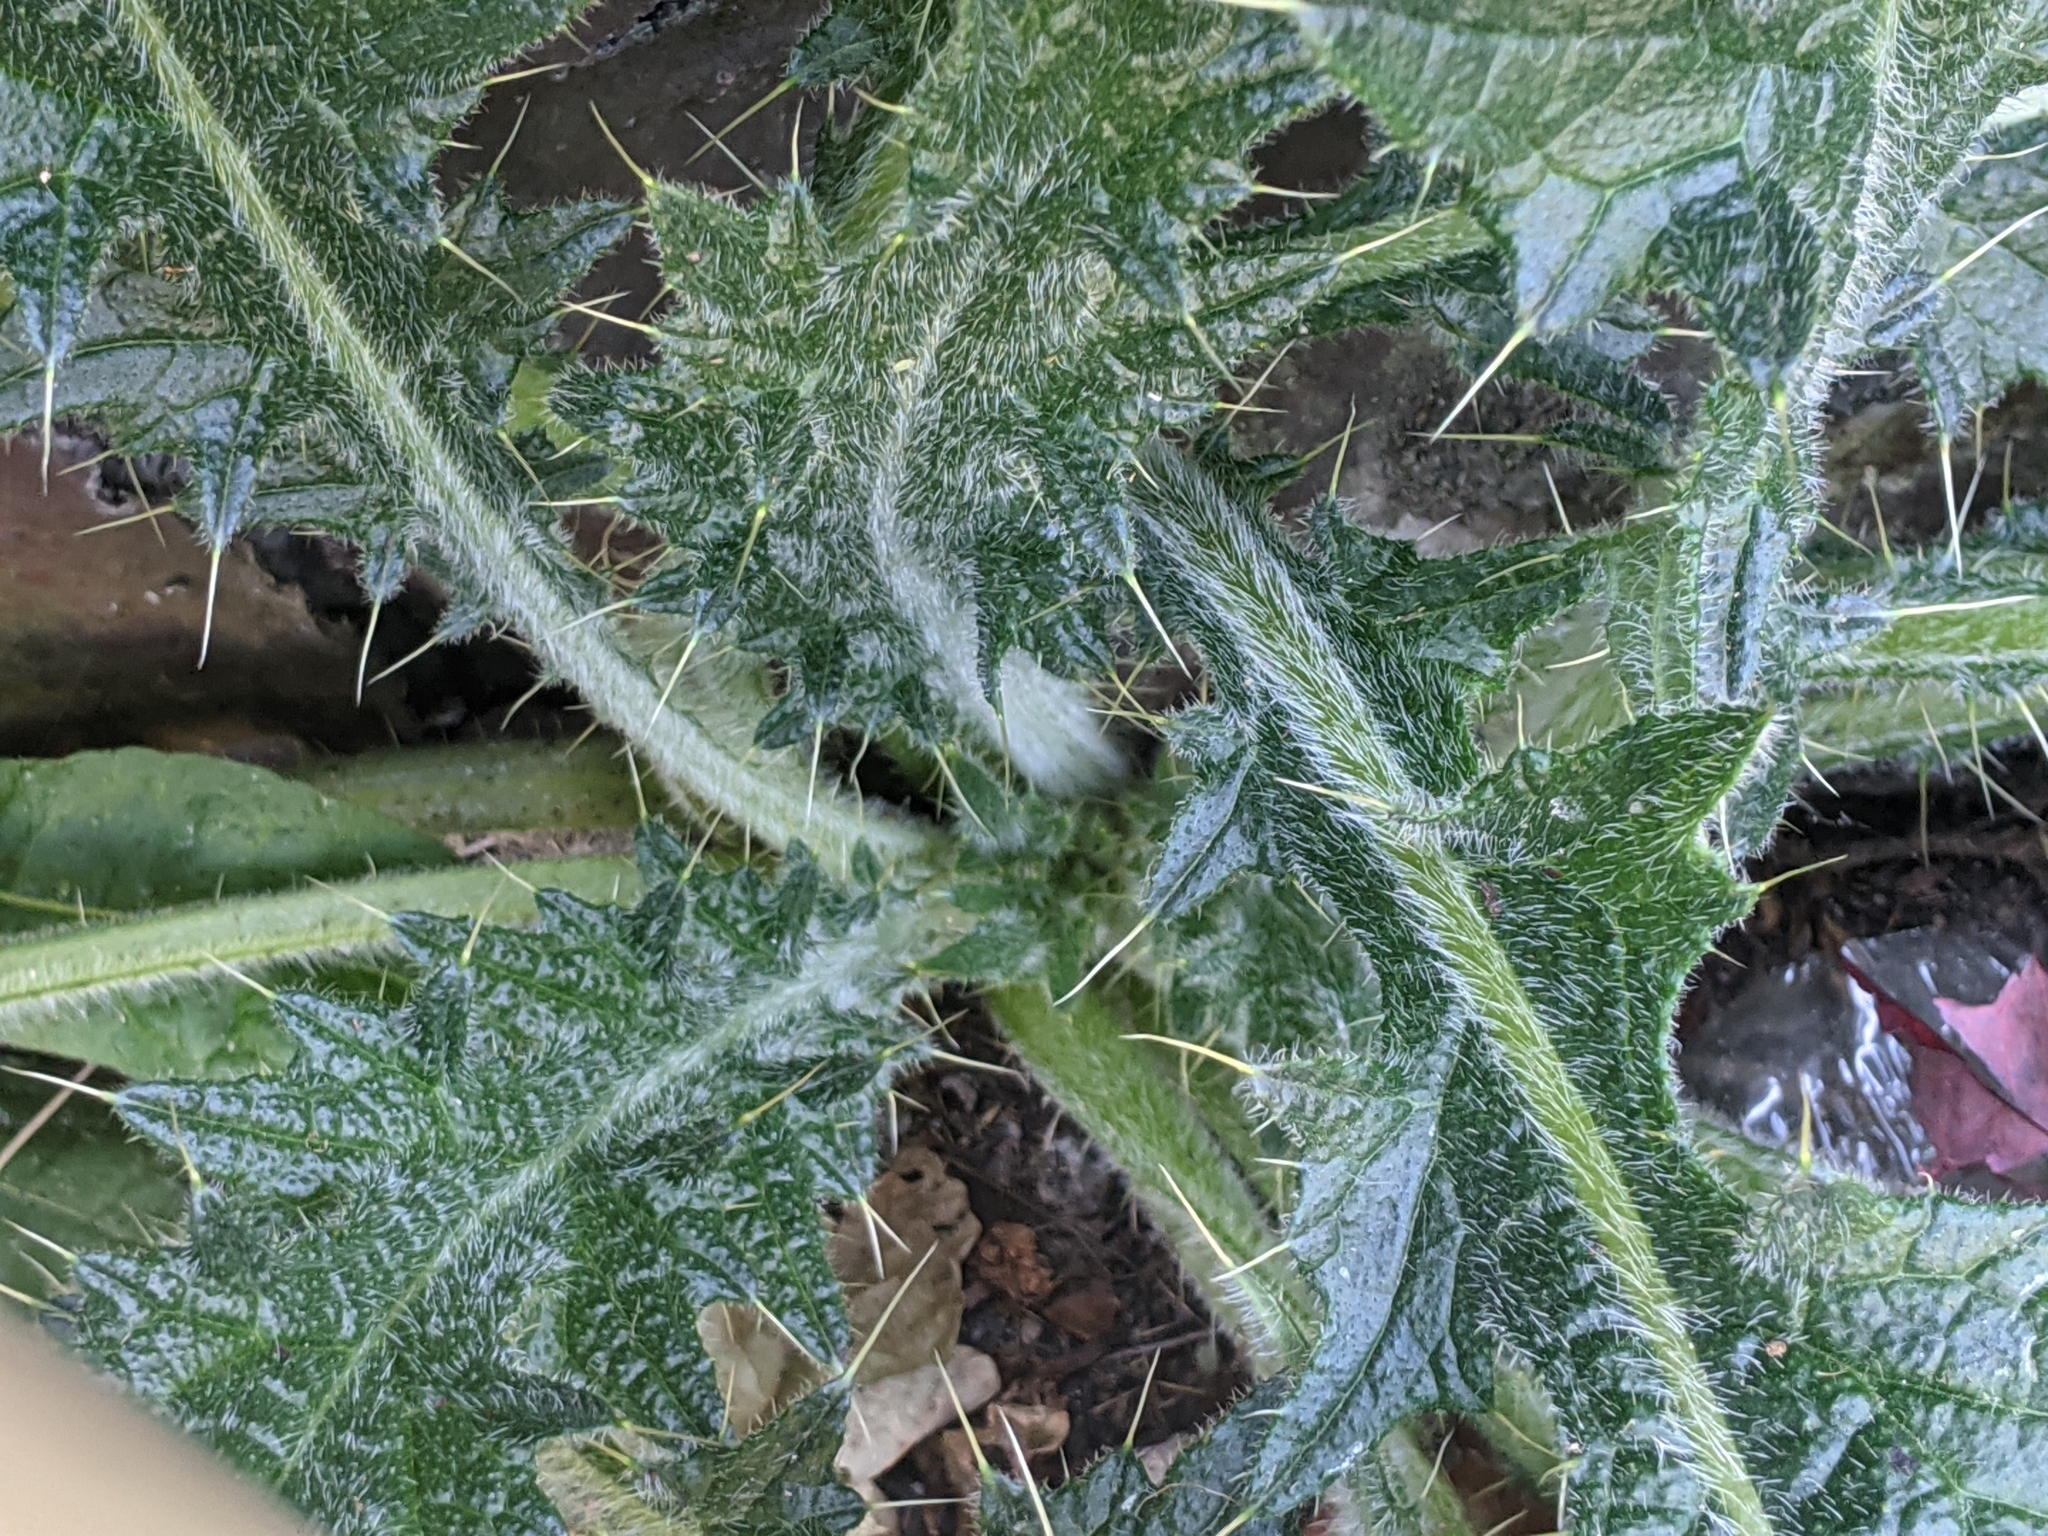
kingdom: Plantae
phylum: Tracheophyta
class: Magnoliopsida
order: Asterales
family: Asteraceae
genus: Cirsium
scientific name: Cirsium vulgare
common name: Bull thistle
